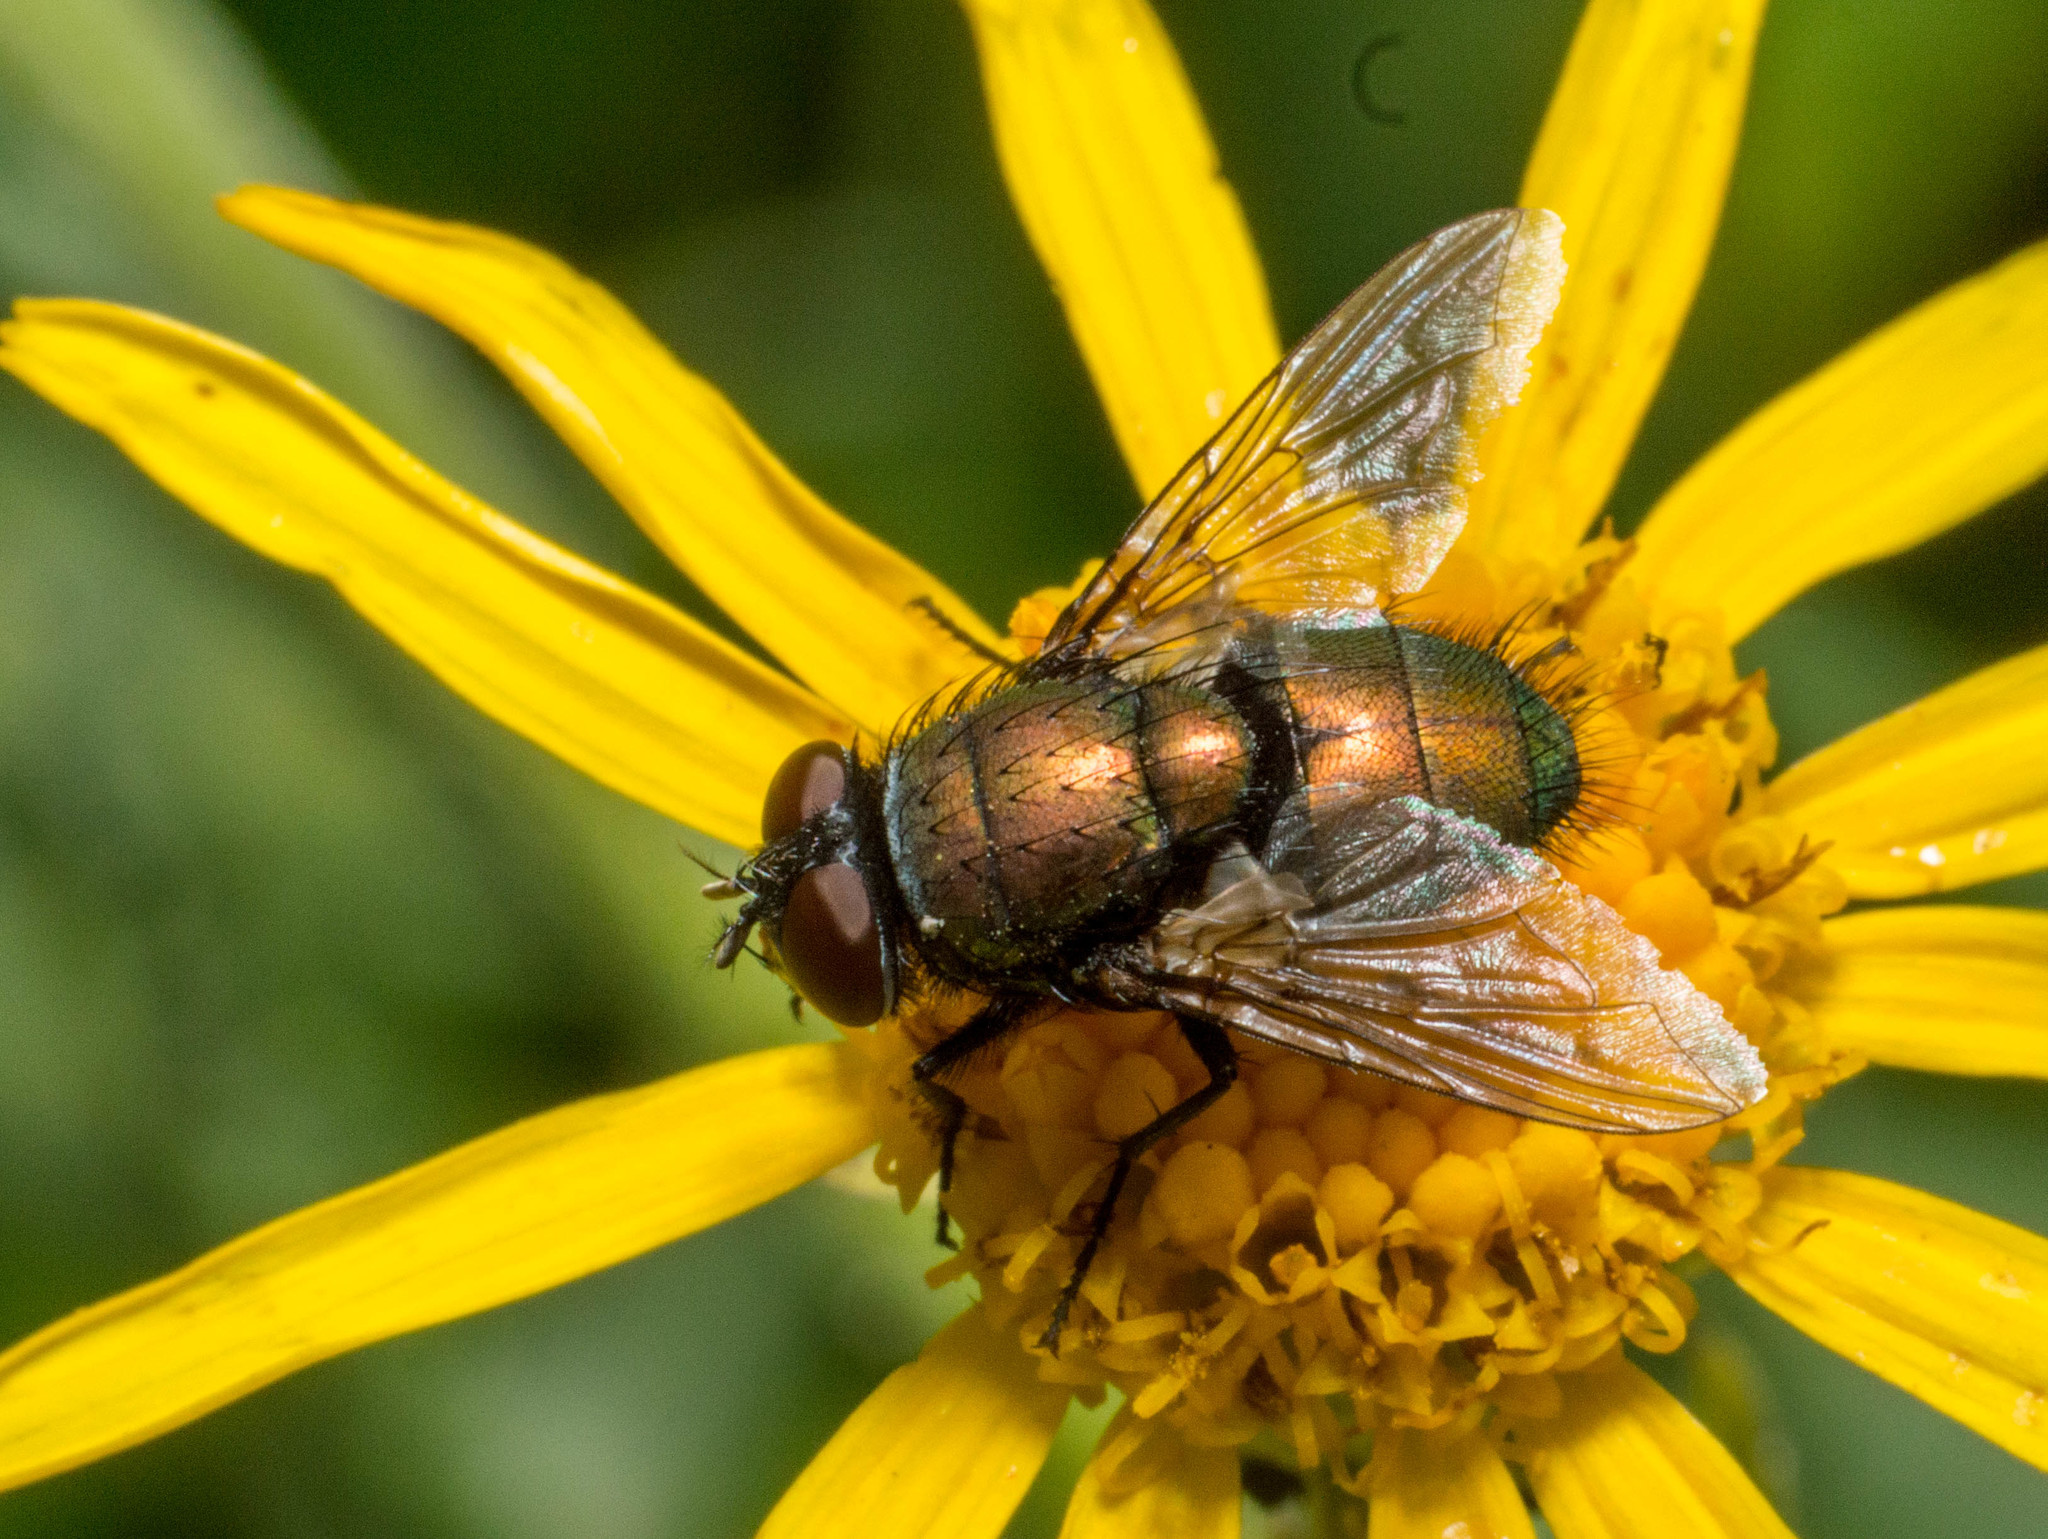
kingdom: Animalia
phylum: Arthropoda
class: Insecta
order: Diptera
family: Calliphoridae
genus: Lucilia
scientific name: Lucilia cuprina
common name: Sheep blow fly
